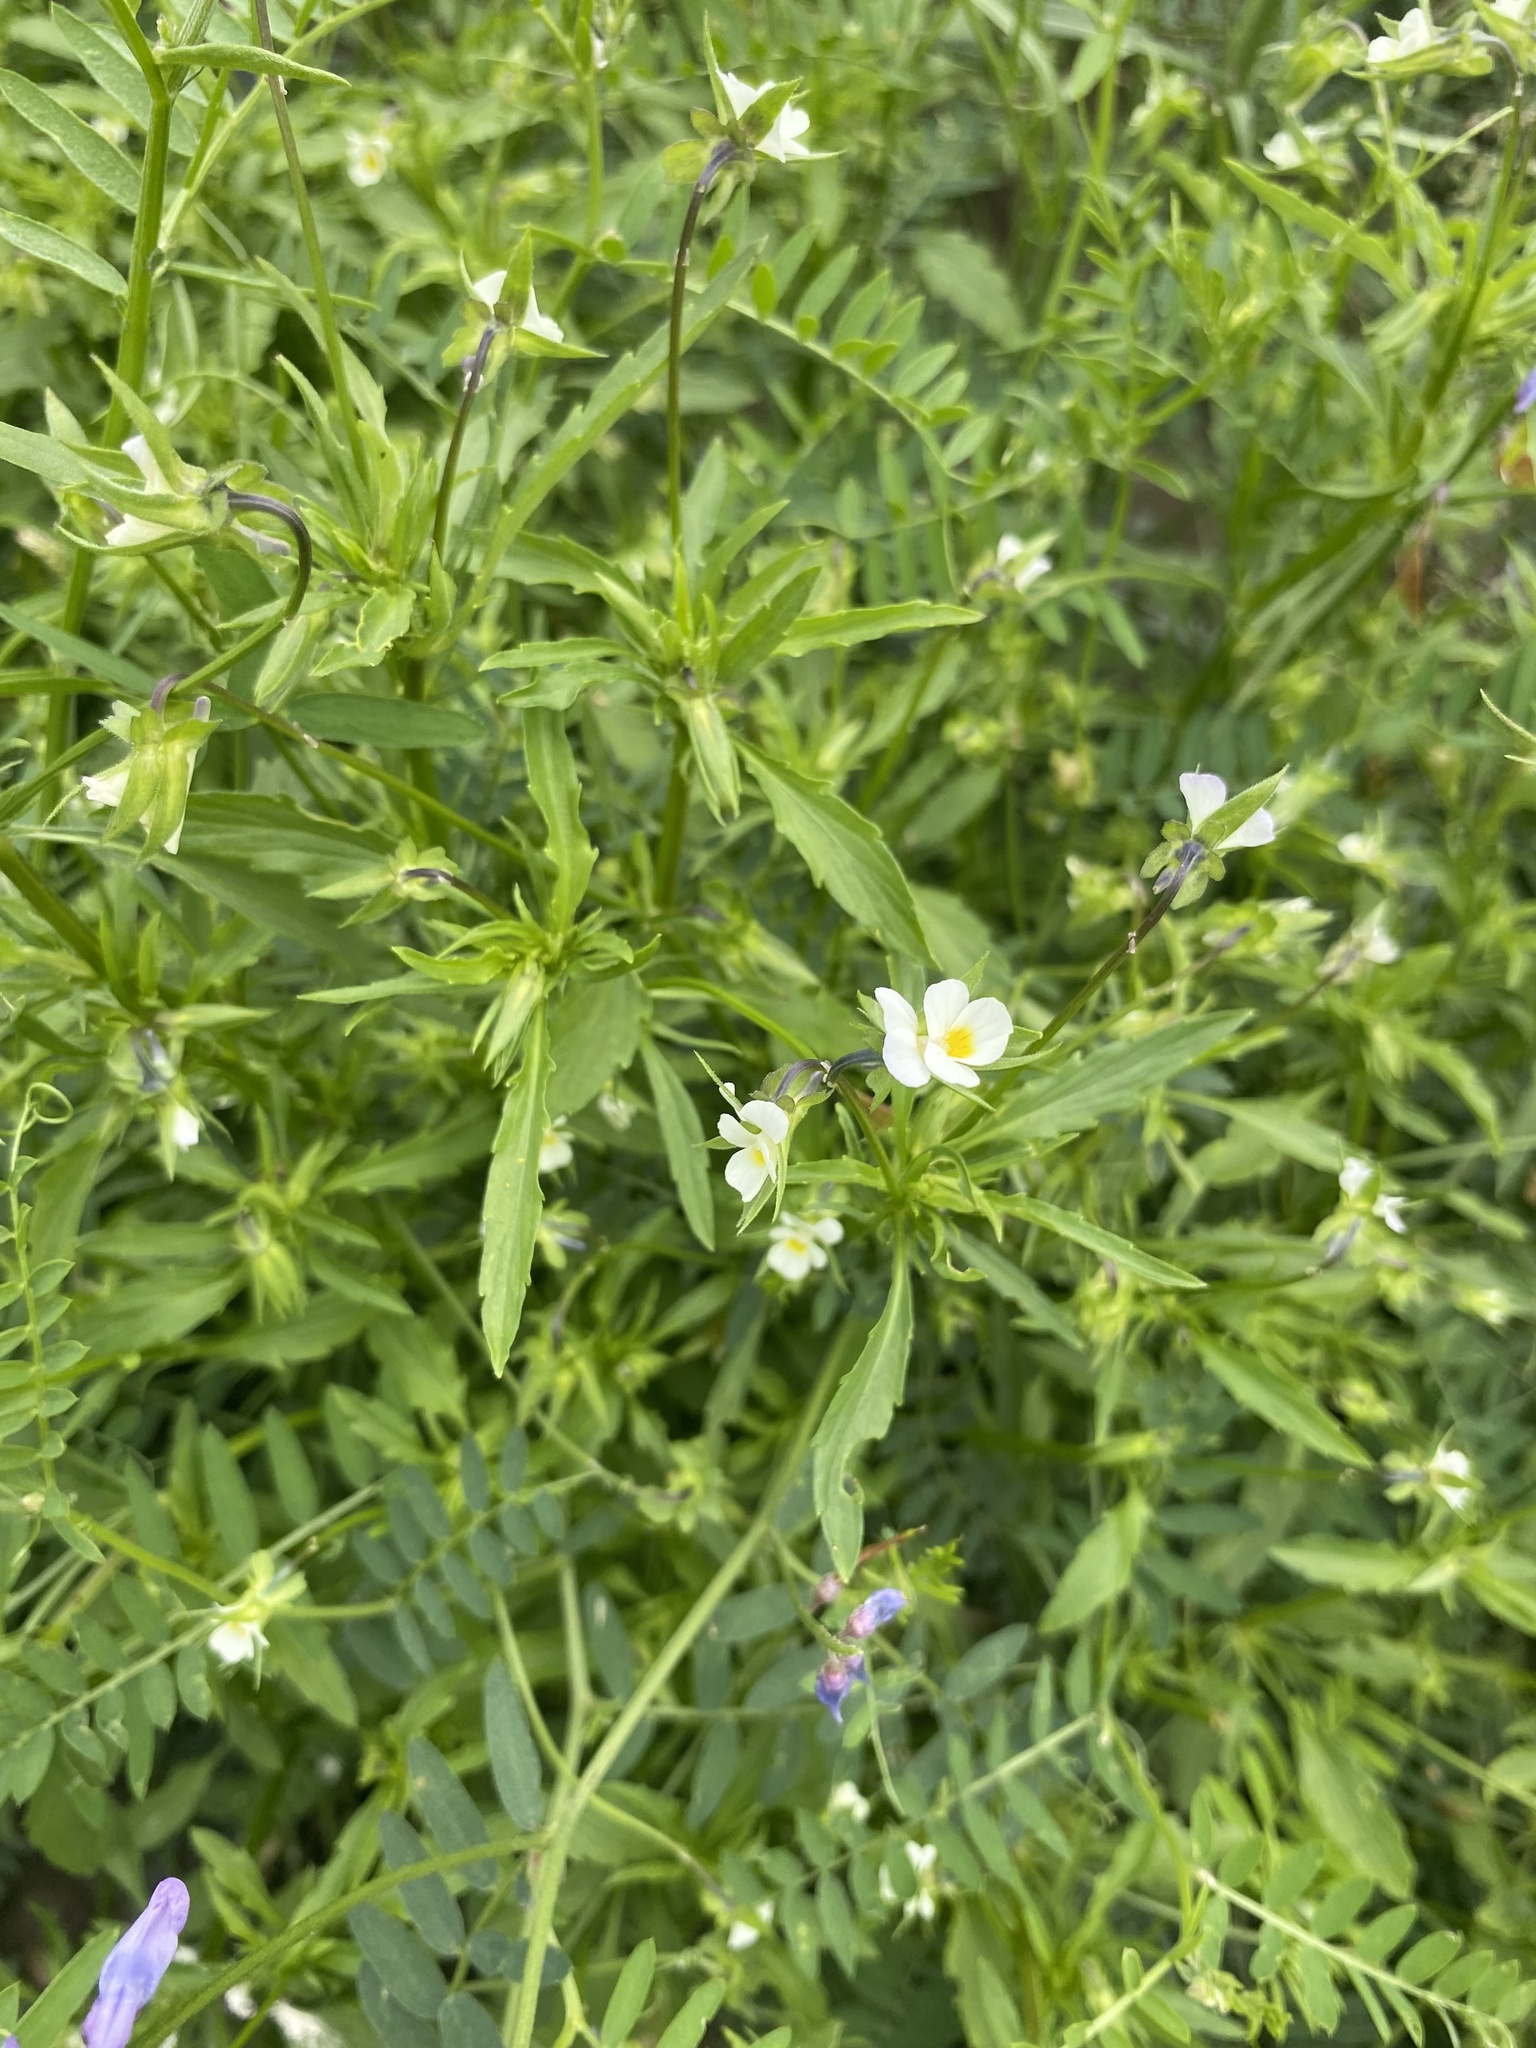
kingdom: Plantae
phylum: Tracheophyta
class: Magnoliopsida
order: Malpighiales
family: Violaceae
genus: Viola
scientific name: Viola arvensis
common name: Field pansy
